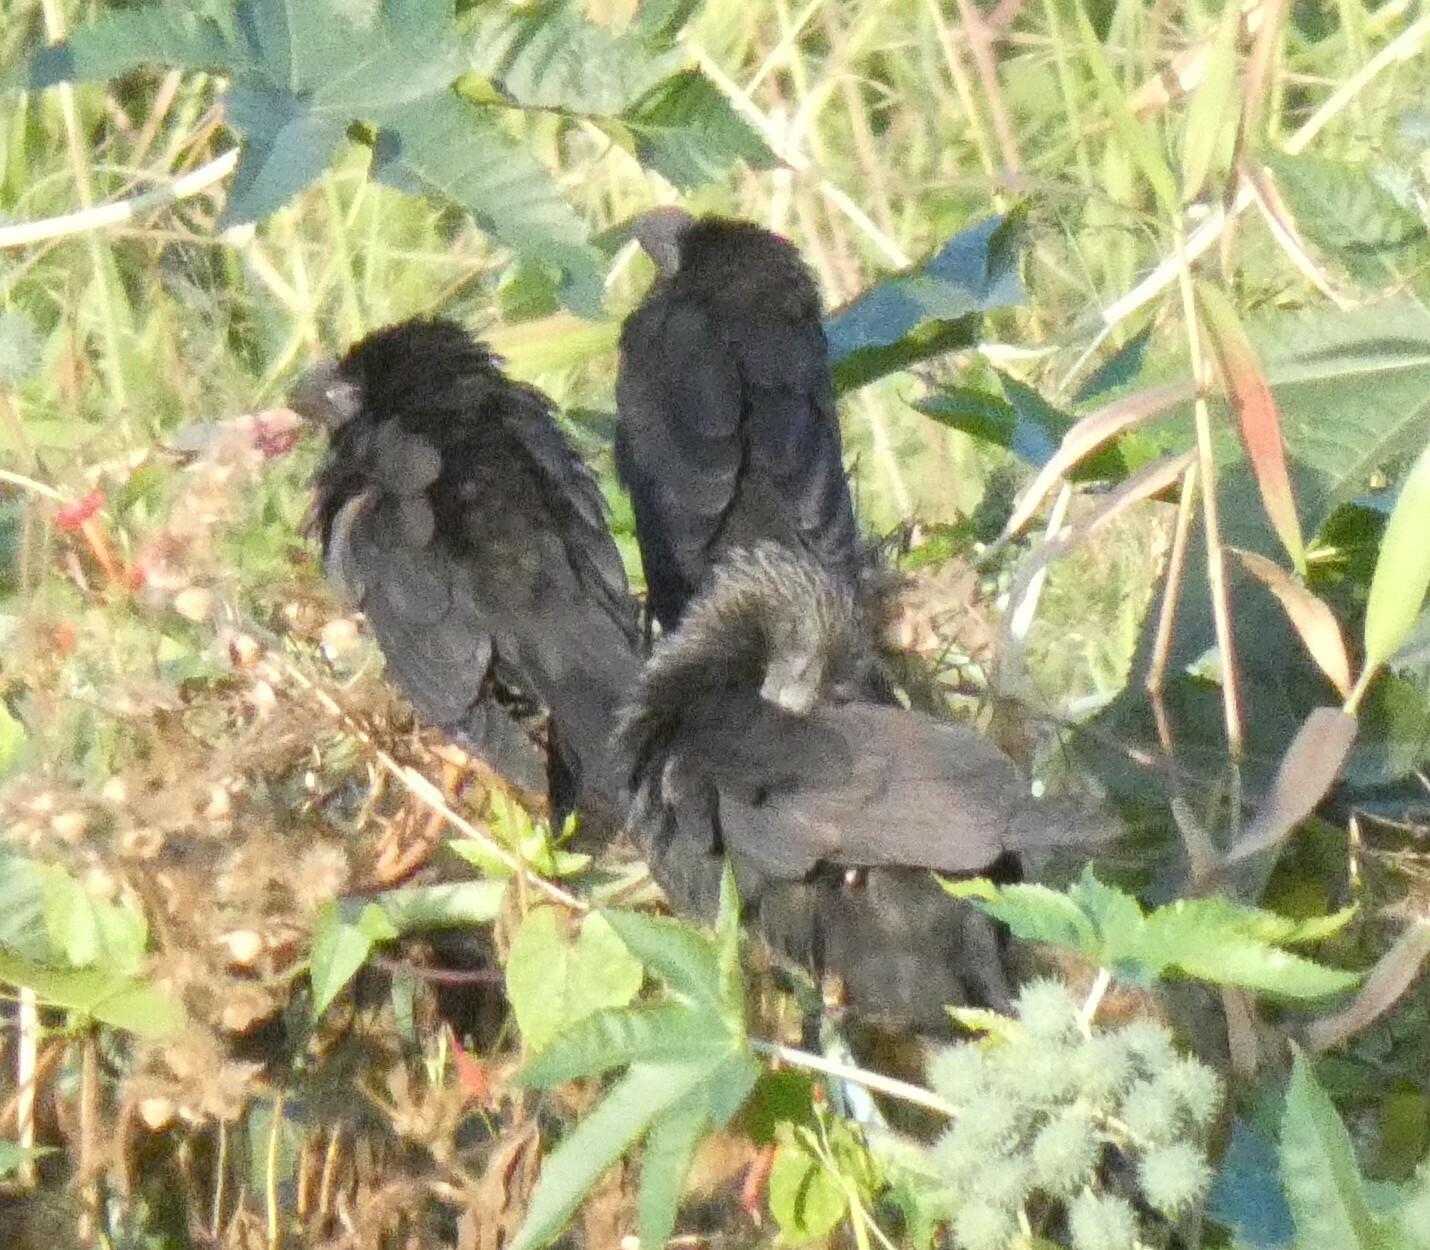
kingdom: Animalia
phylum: Chordata
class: Aves
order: Cuculiformes
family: Cuculidae
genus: Crotophaga
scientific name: Crotophaga ani
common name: Smooth-billed ani
